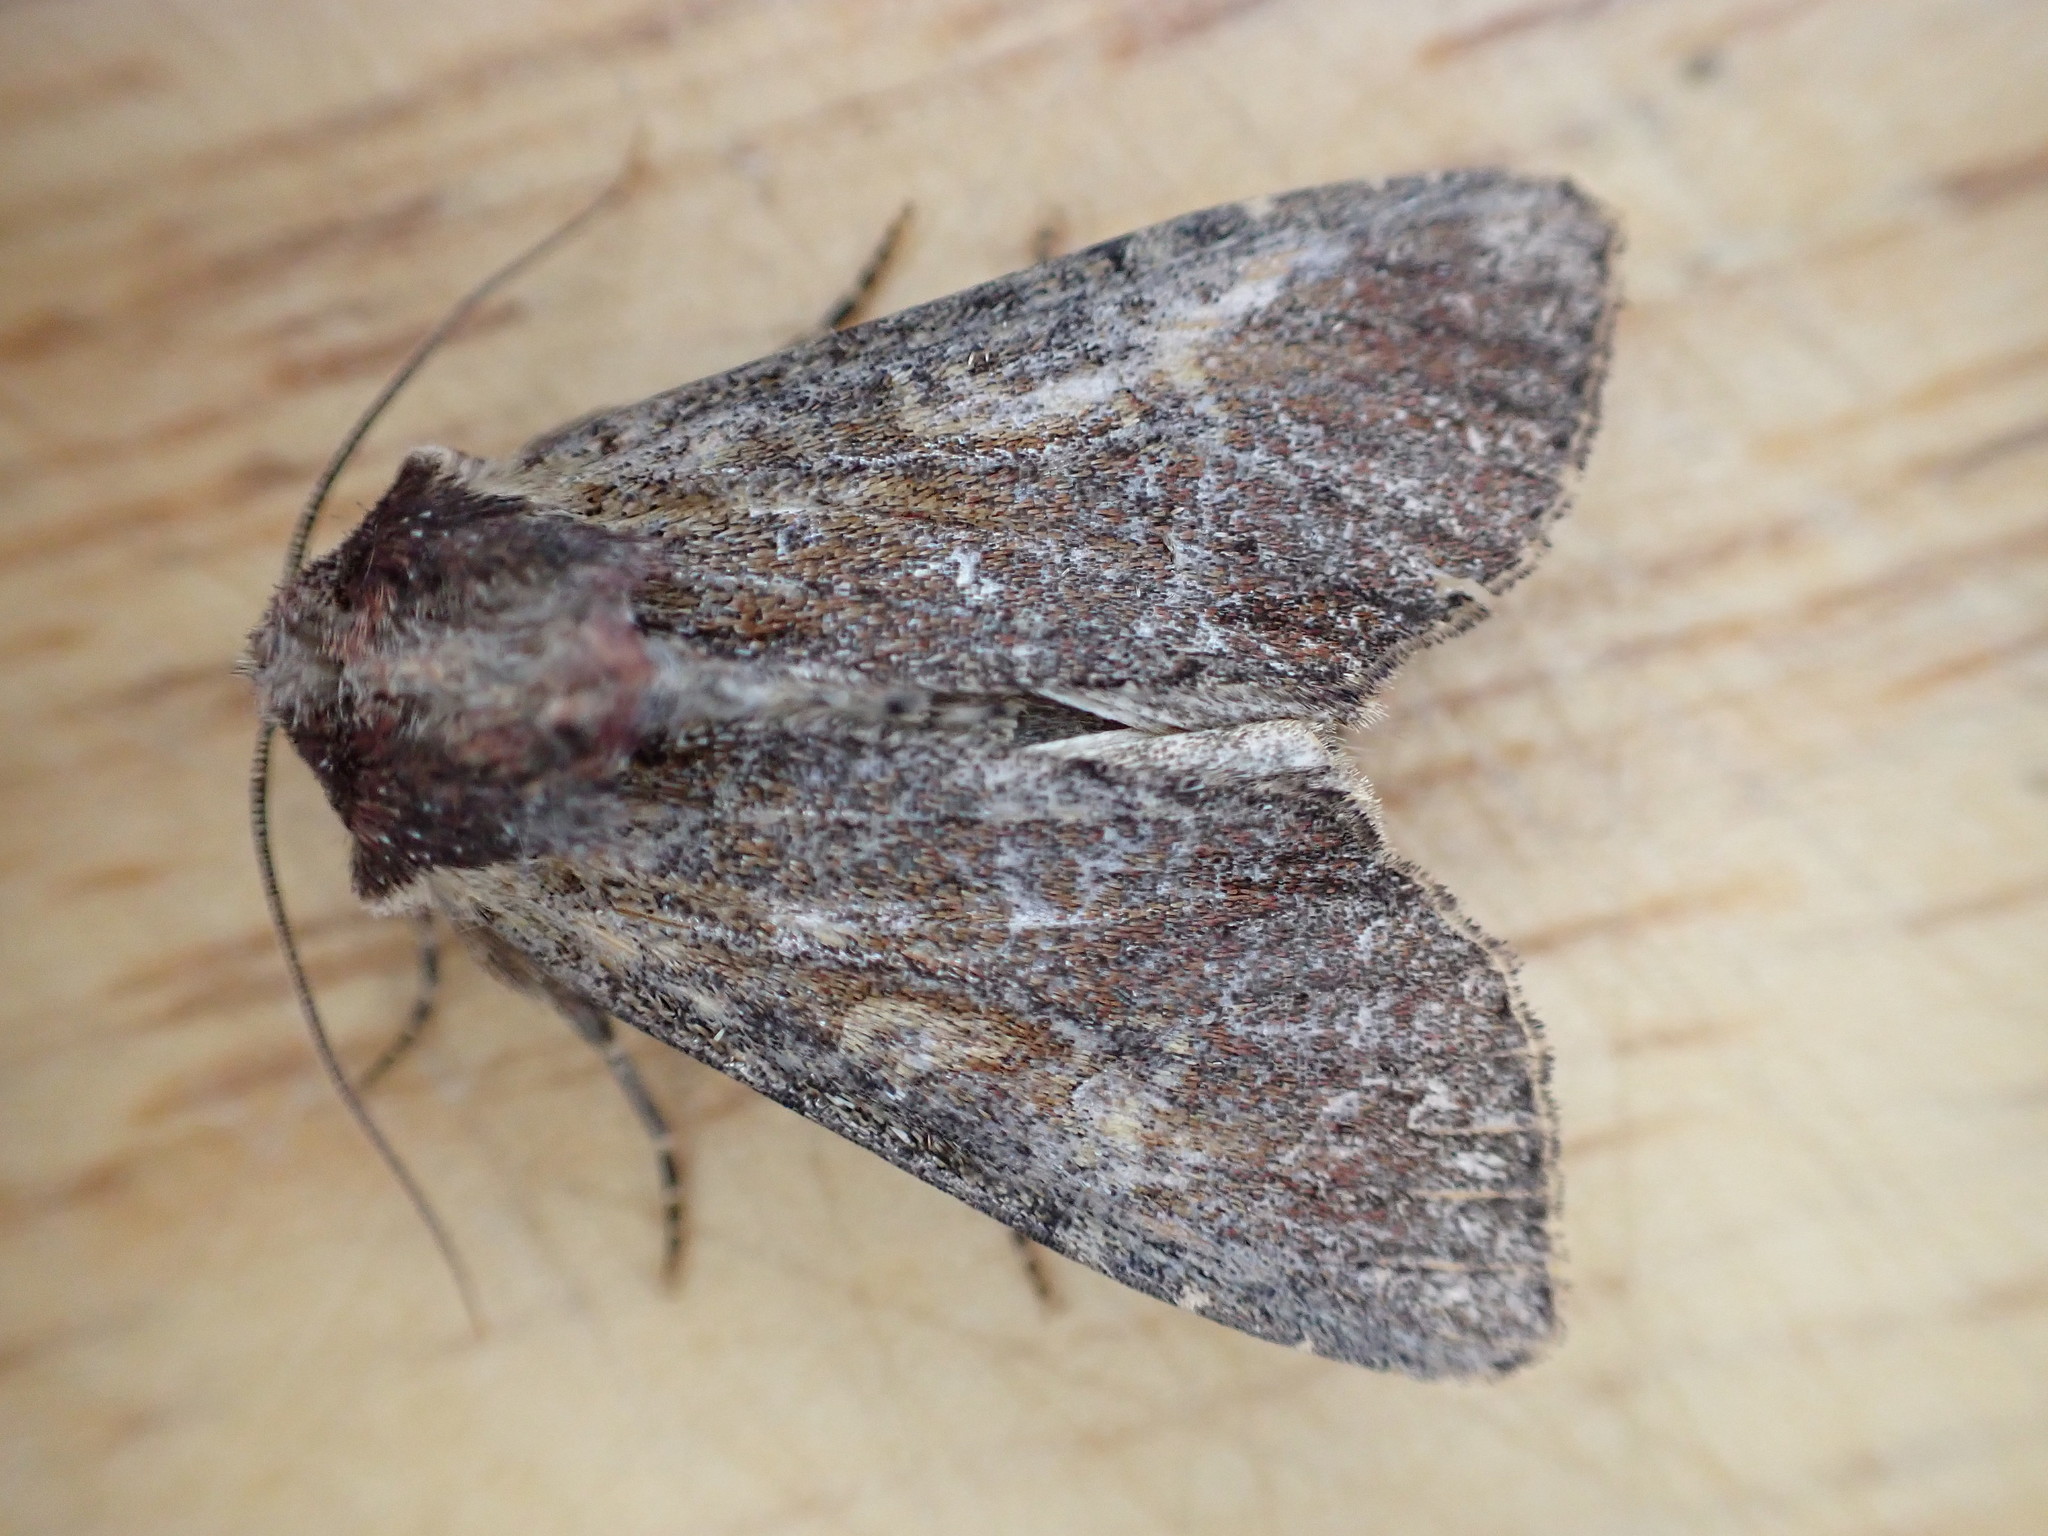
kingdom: Animalia
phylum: Arthropoda
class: Insecta
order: Lepidoptera
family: Noctuidae
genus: Apamea
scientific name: Apamea crenata
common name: Clouded-bordered brindle
